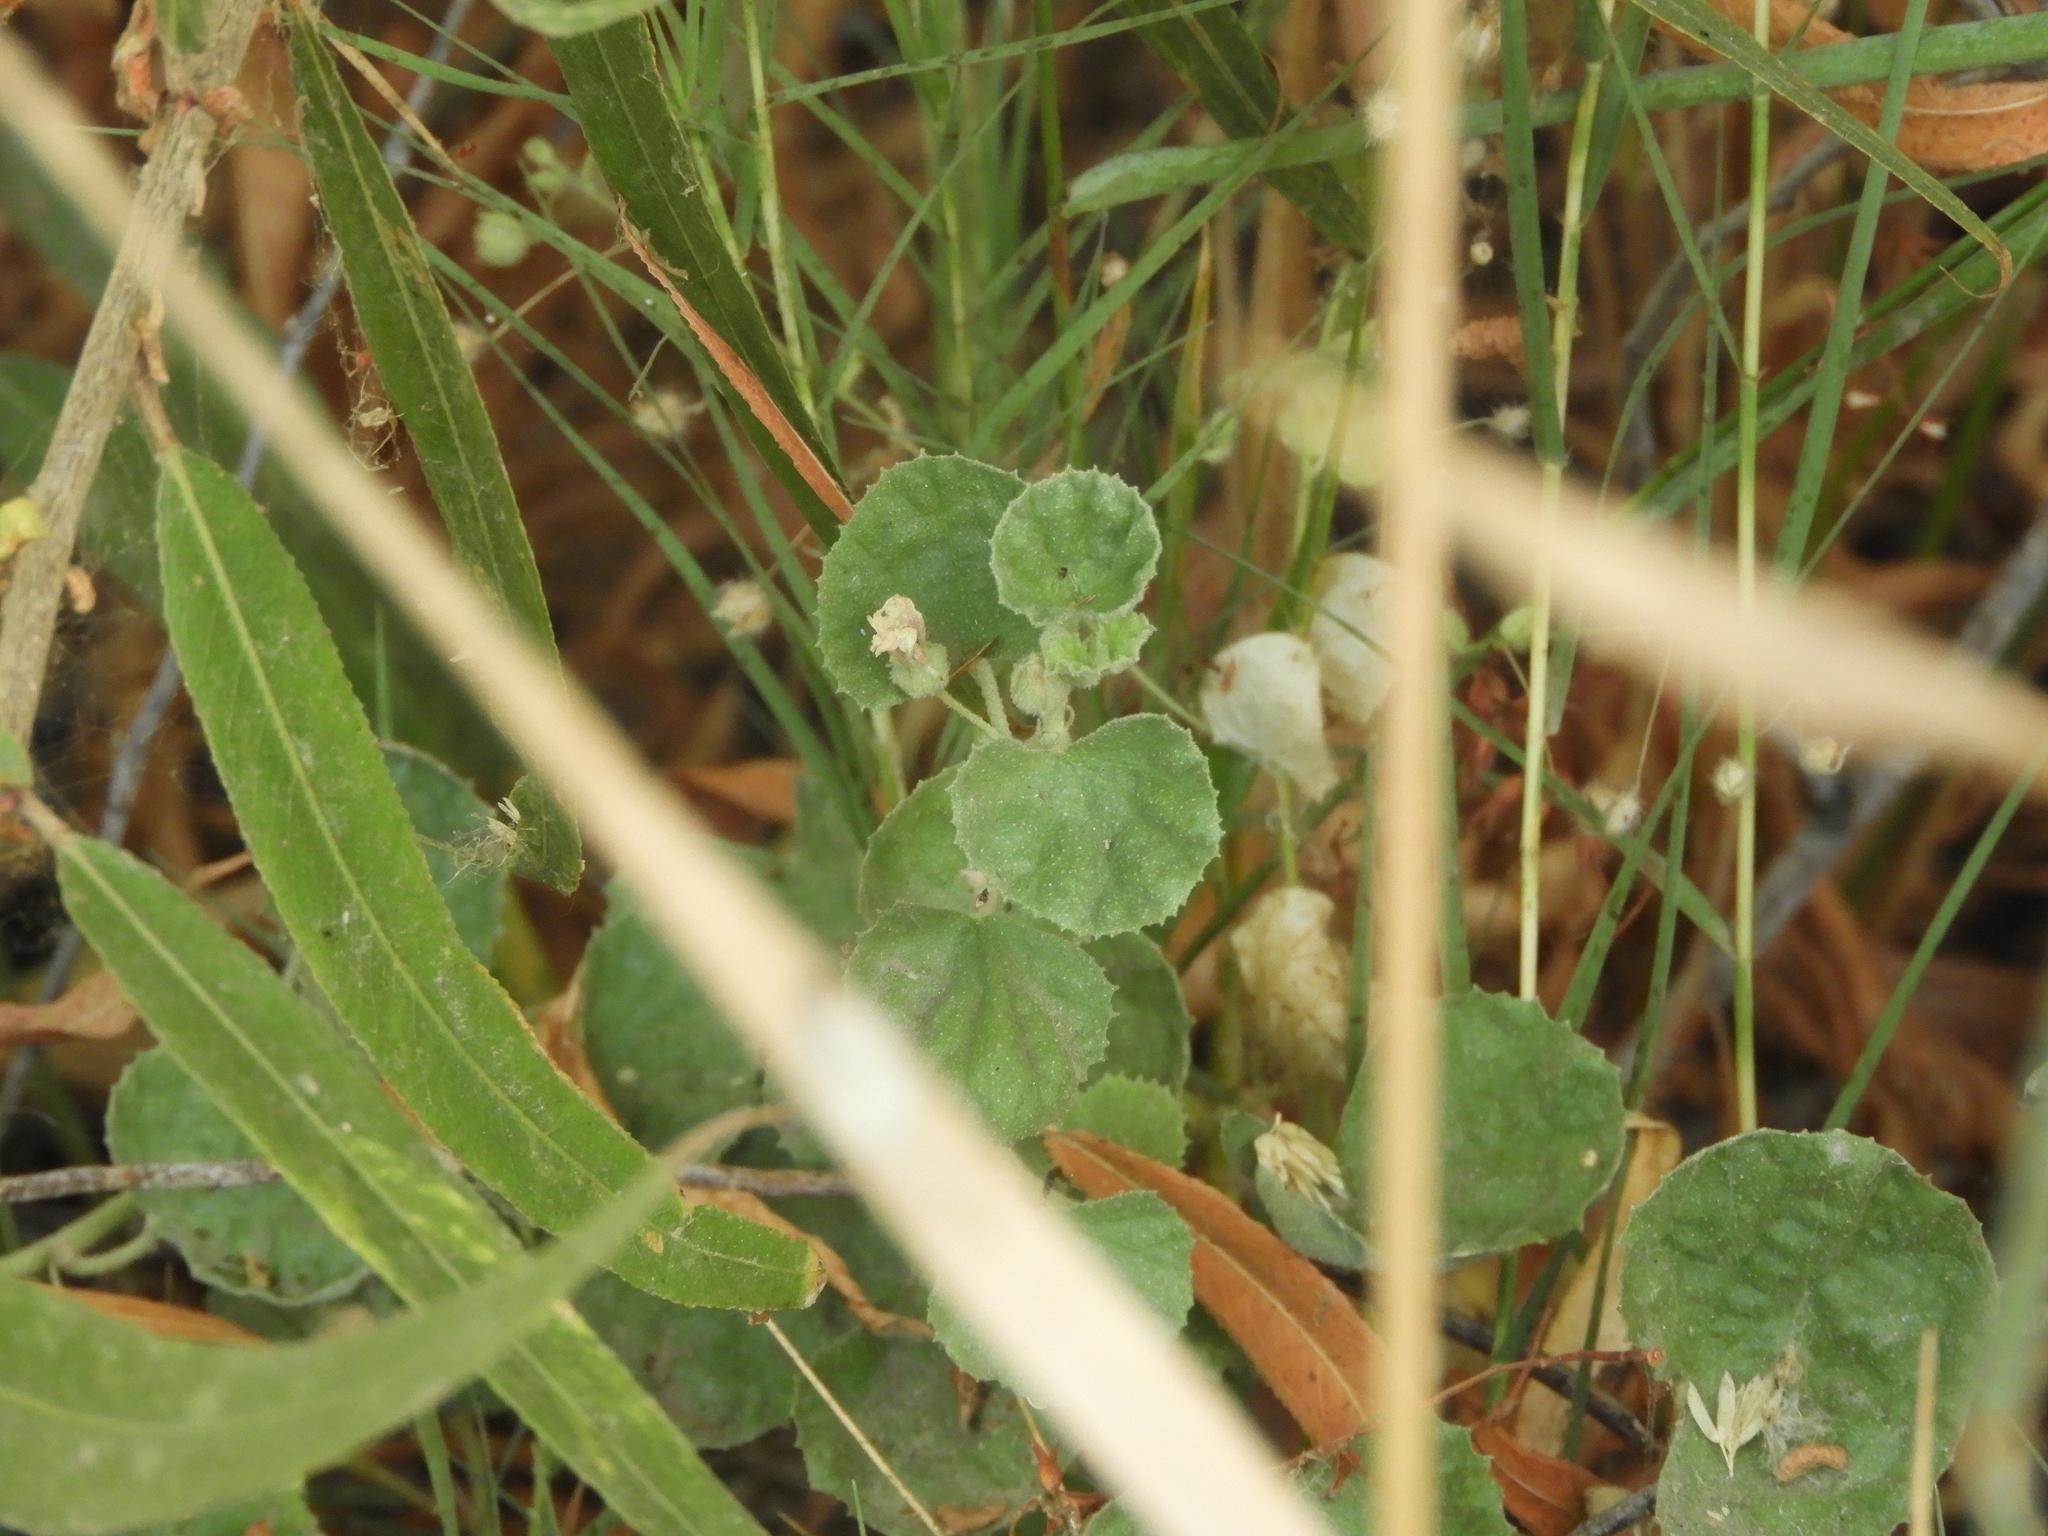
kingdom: Plantae
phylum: Tracheophyta
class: Magnoliopsida
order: Malvales
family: Malvaceae
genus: Malvella
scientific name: Malvella leprosa
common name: Alkali-mallow
